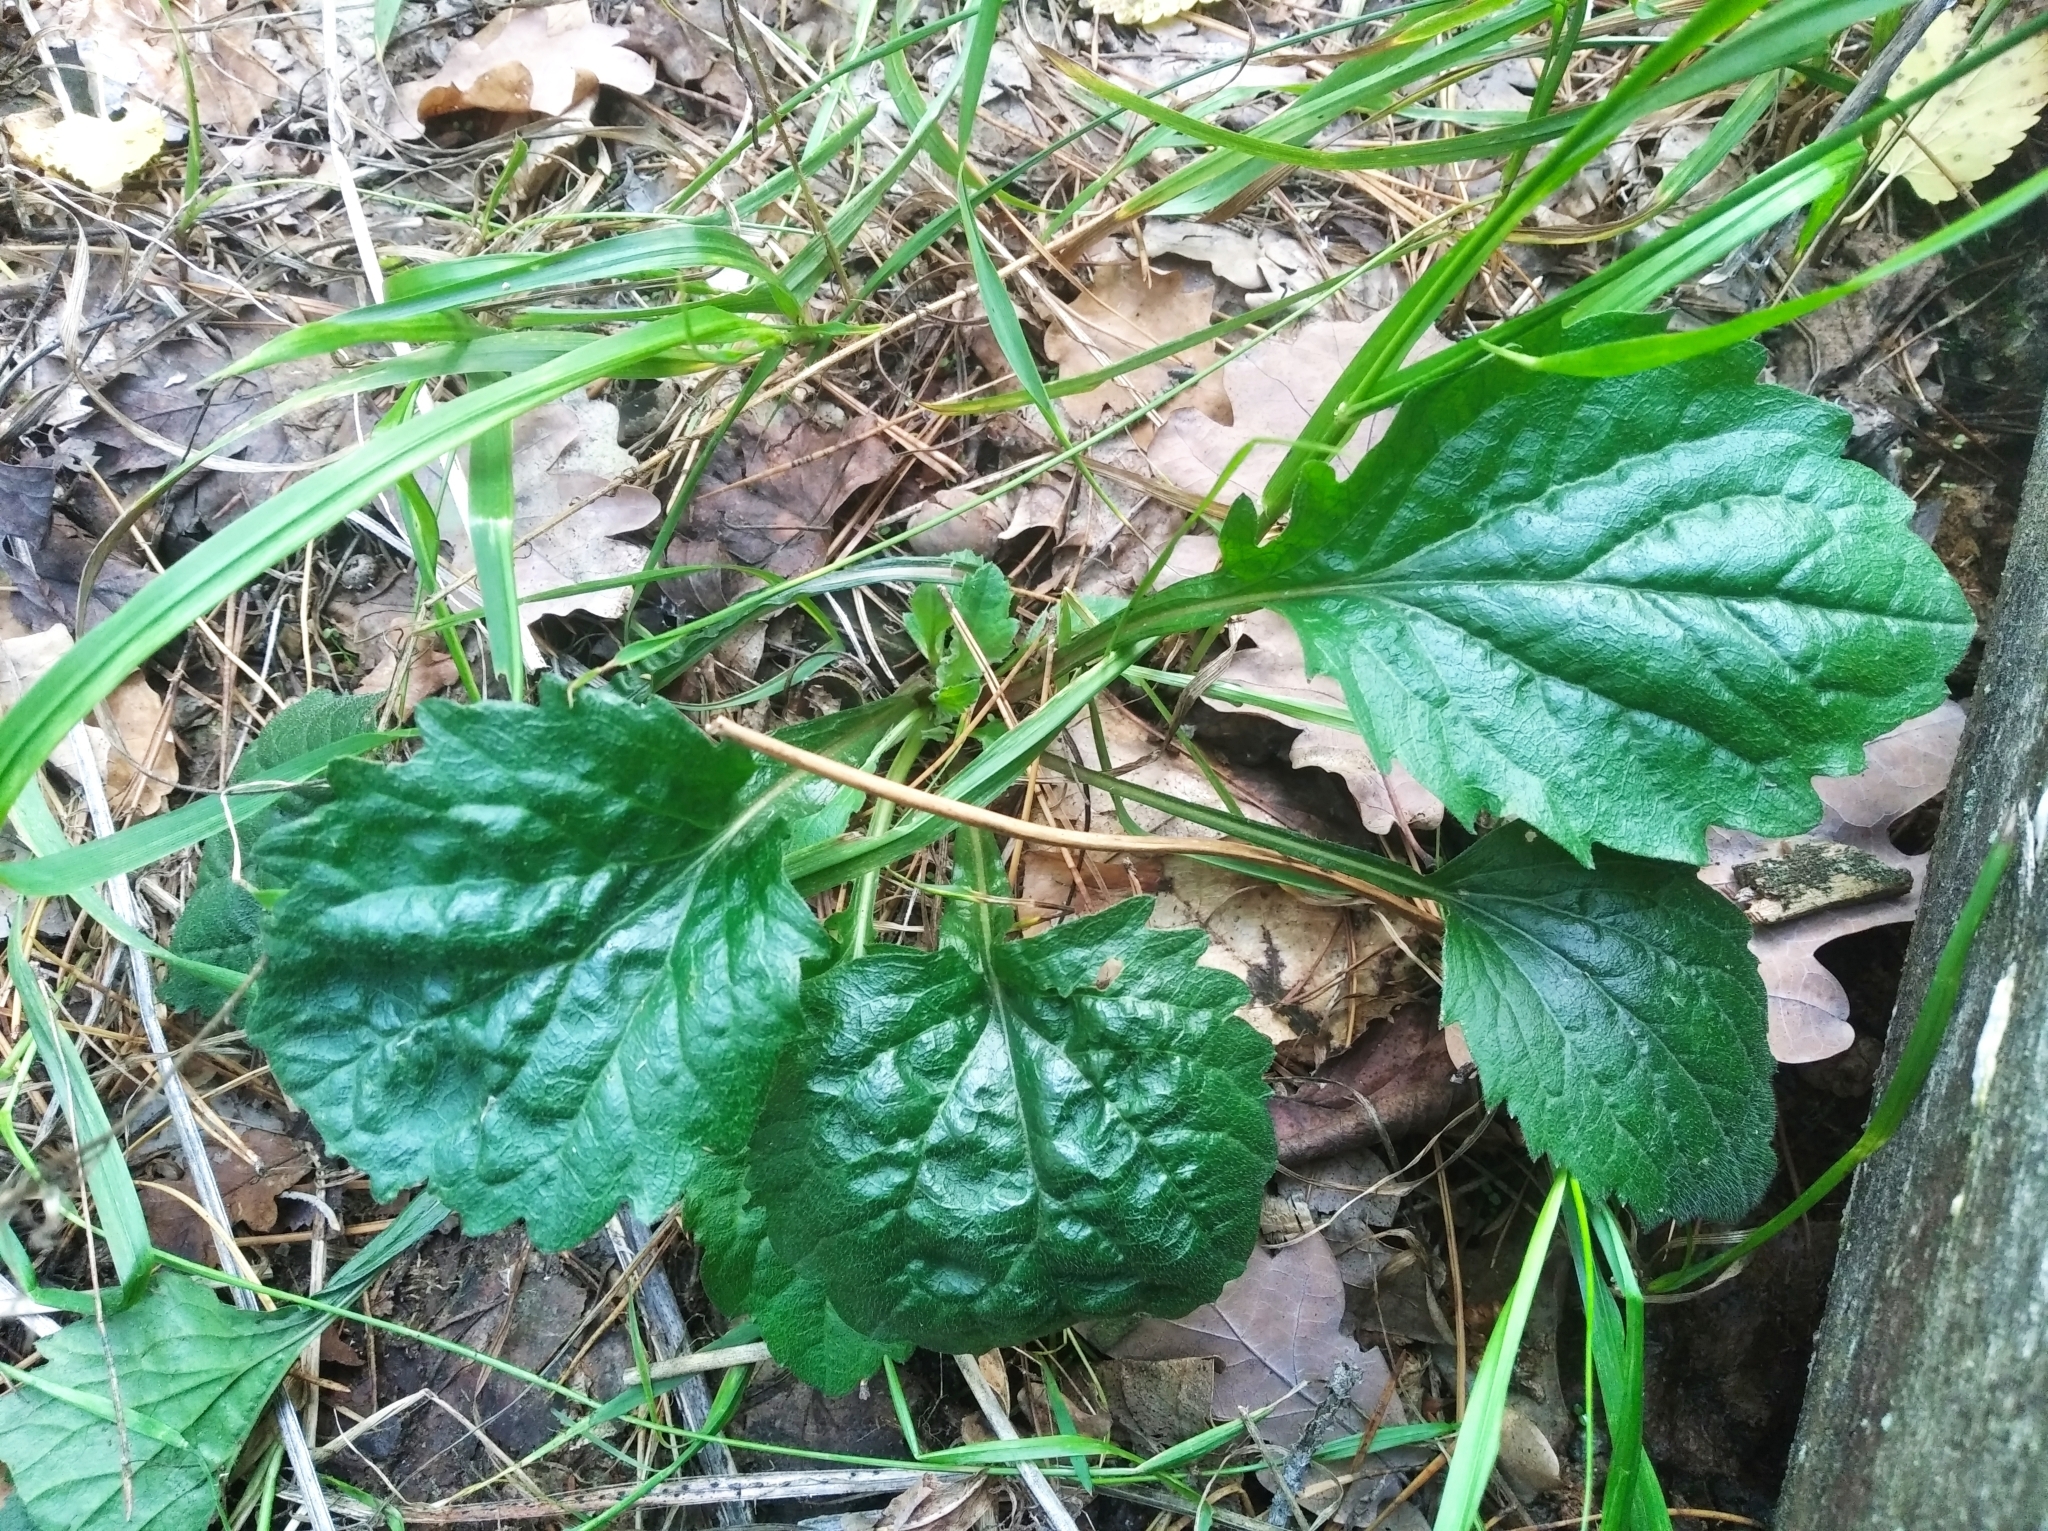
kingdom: Plantae
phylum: Tracheophyta
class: Magnoliopsida
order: Asterales
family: Asteraceae
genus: Erigeron
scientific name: Erigeron annuus
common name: Tall fleabane
